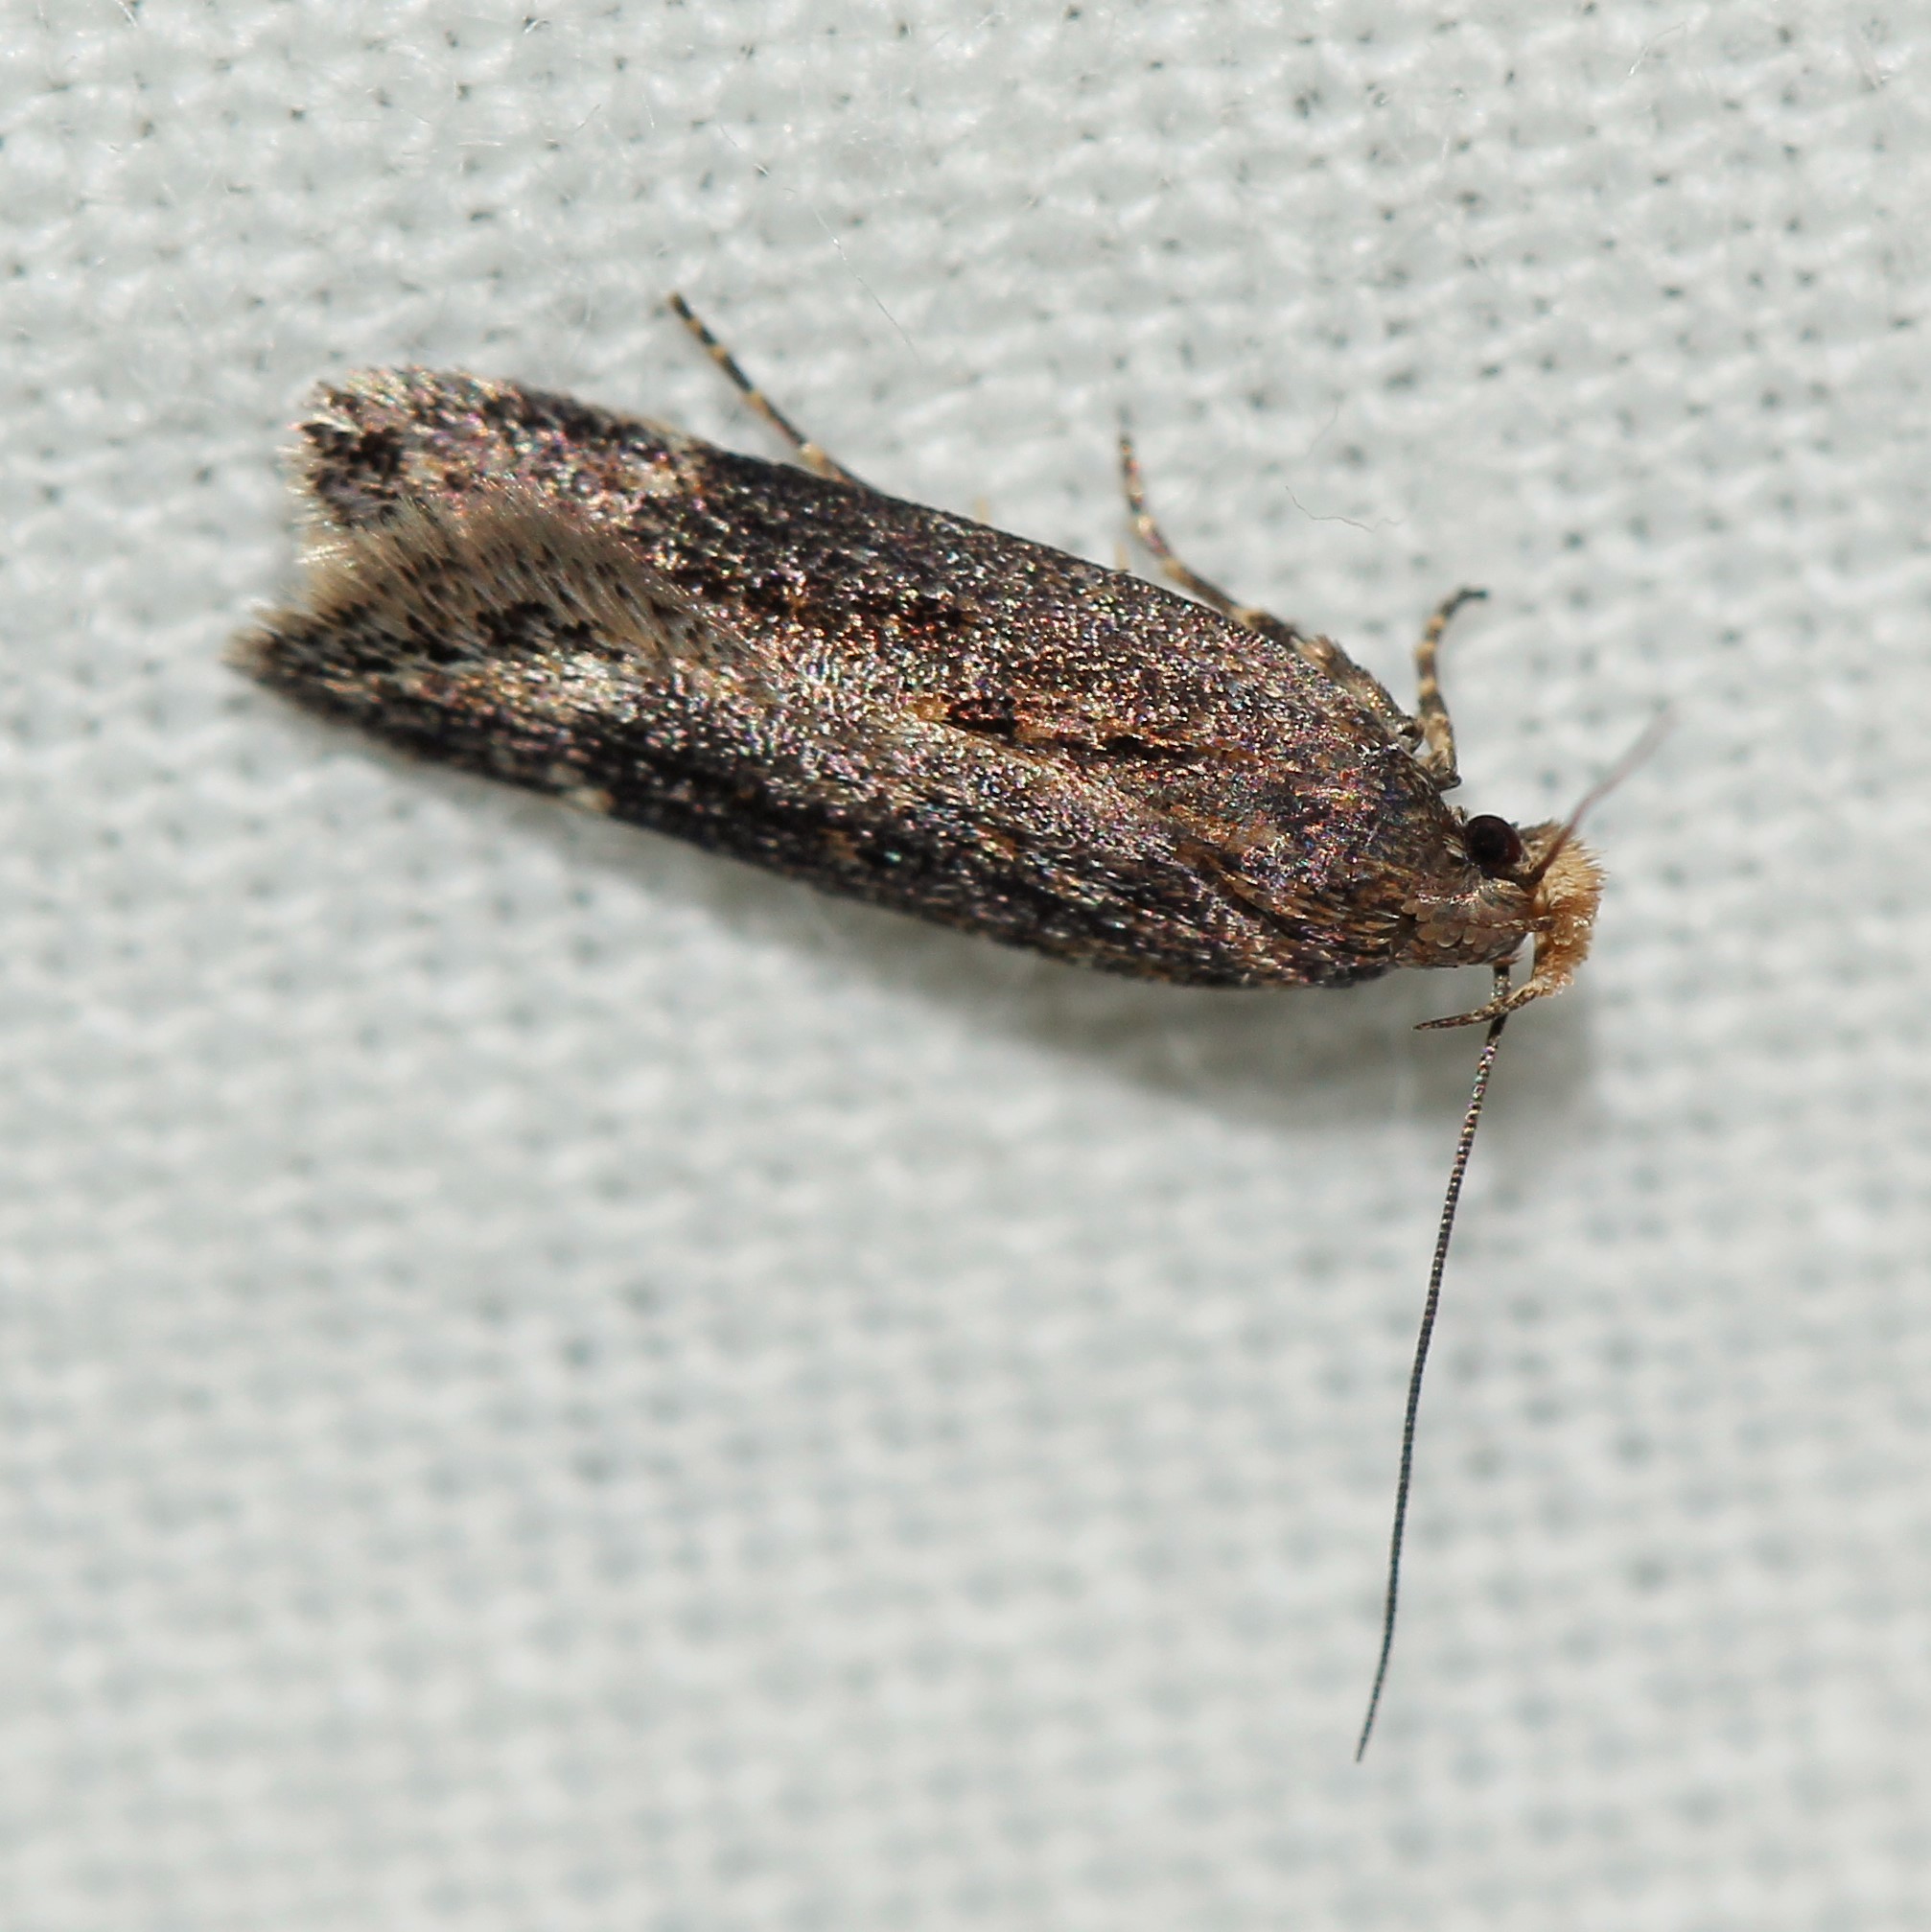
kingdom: Animalia
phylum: Arthropoda
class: Insecta
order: Lepidoptera
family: Gelechiidae
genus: Aroga
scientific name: Aroga velocella
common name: Dusky groundling
